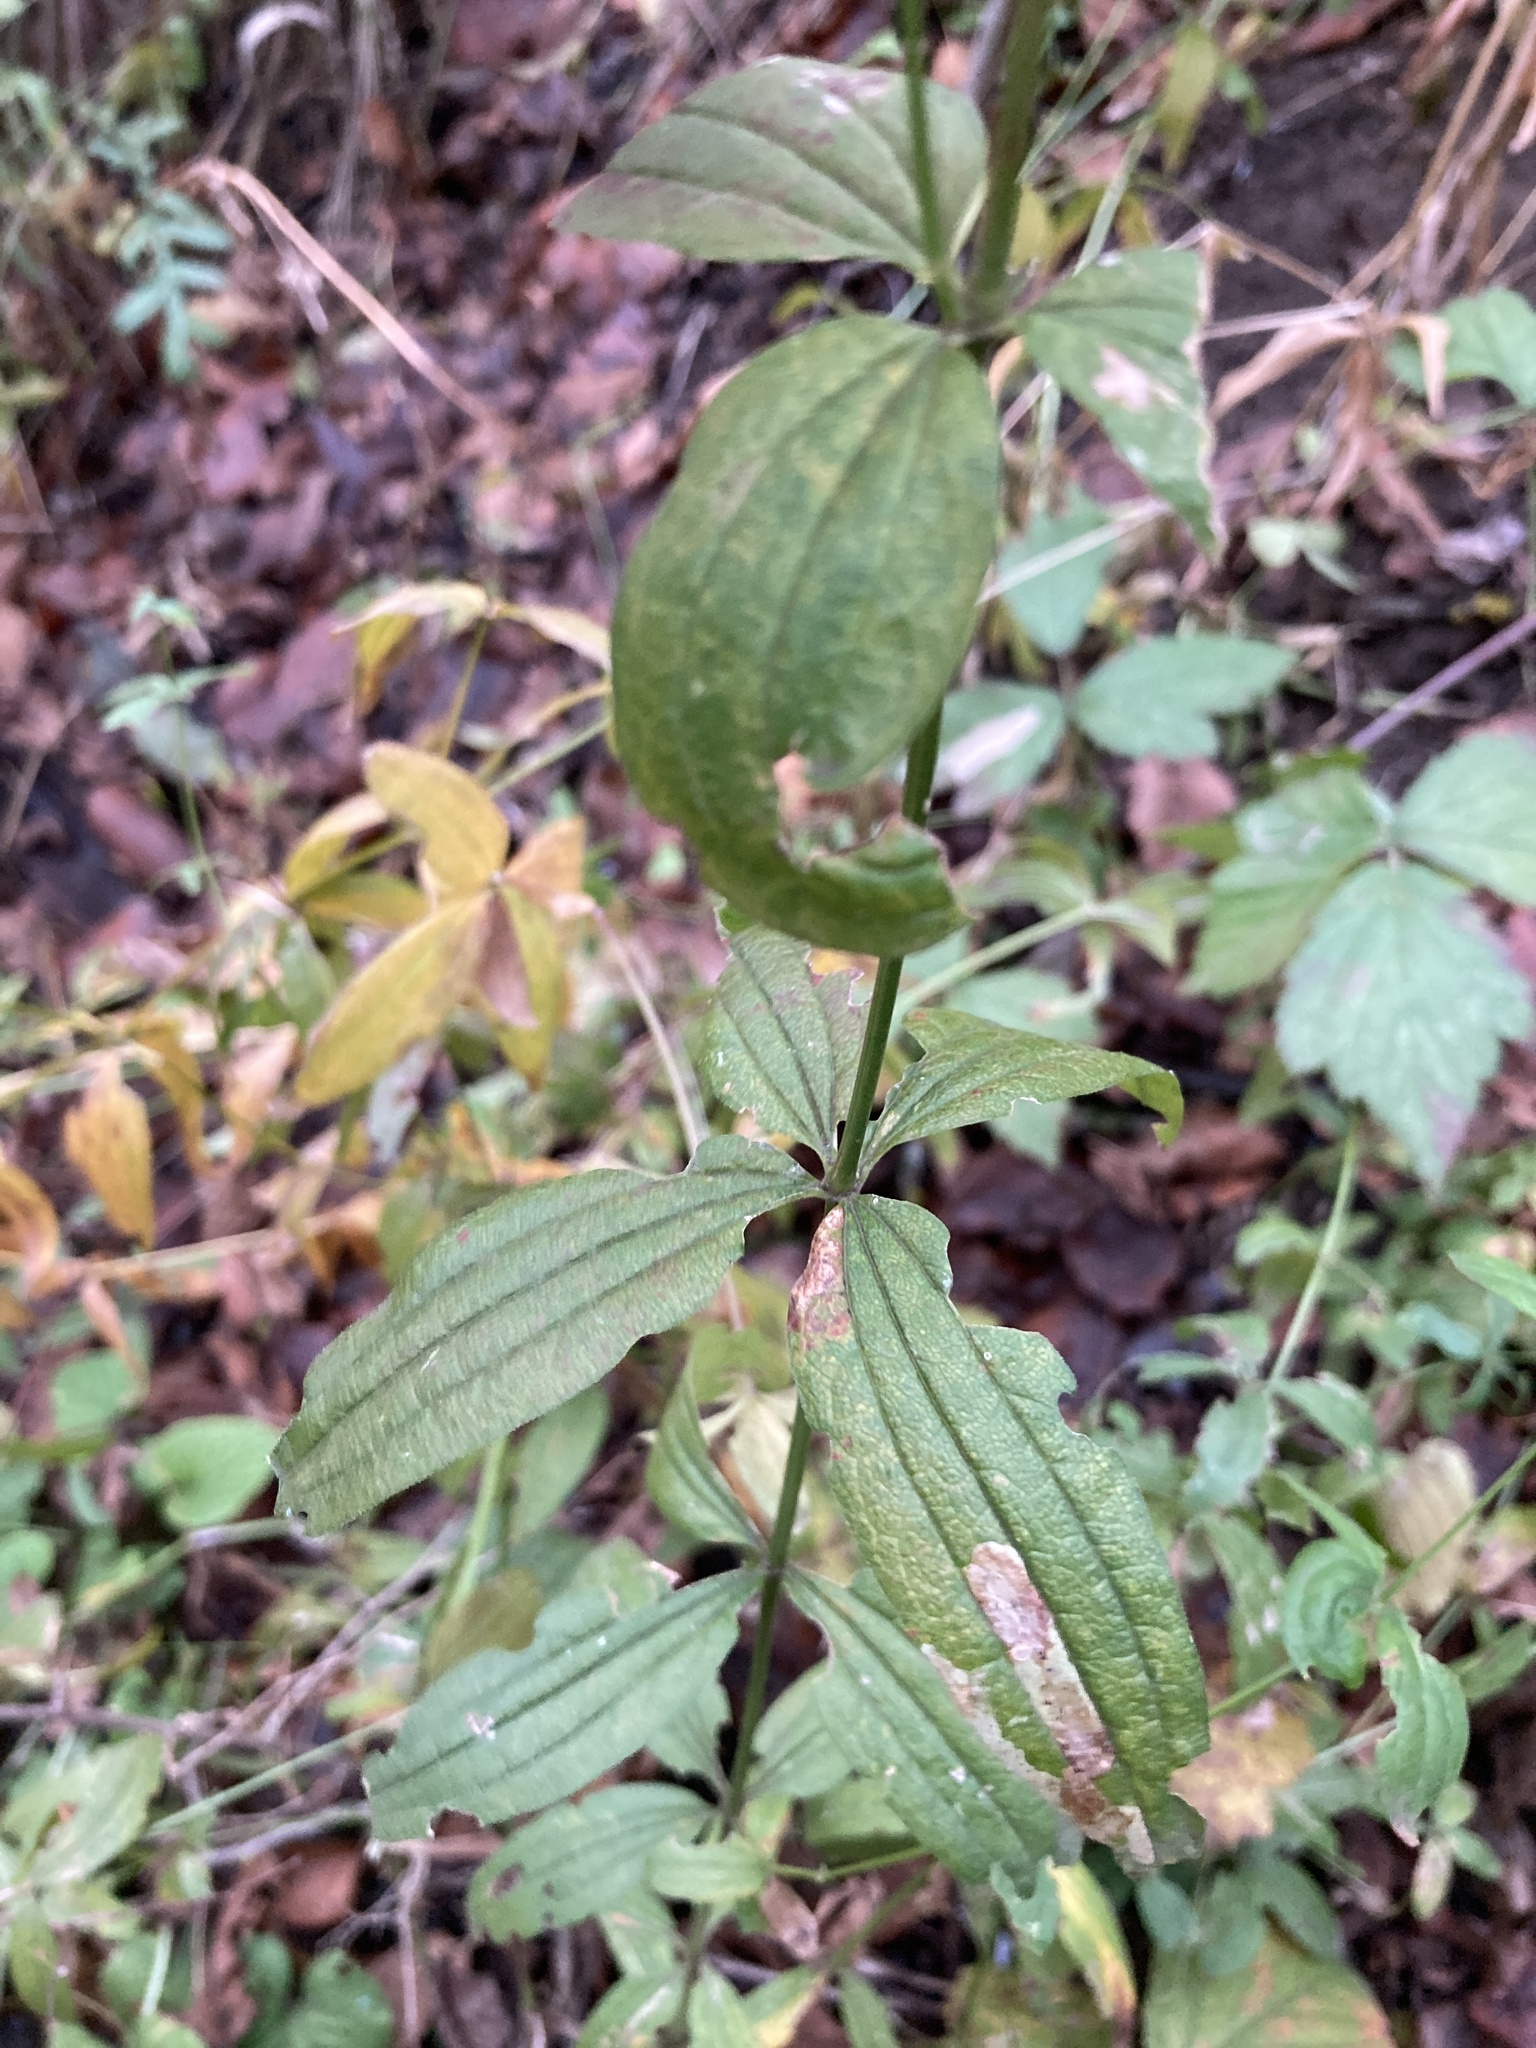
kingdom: Plantae
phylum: Tracheophyta
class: Magnoliopsida
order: Gentianales
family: Rubiaceae
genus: Galium
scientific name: Galium rubioides
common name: European bedstraw
